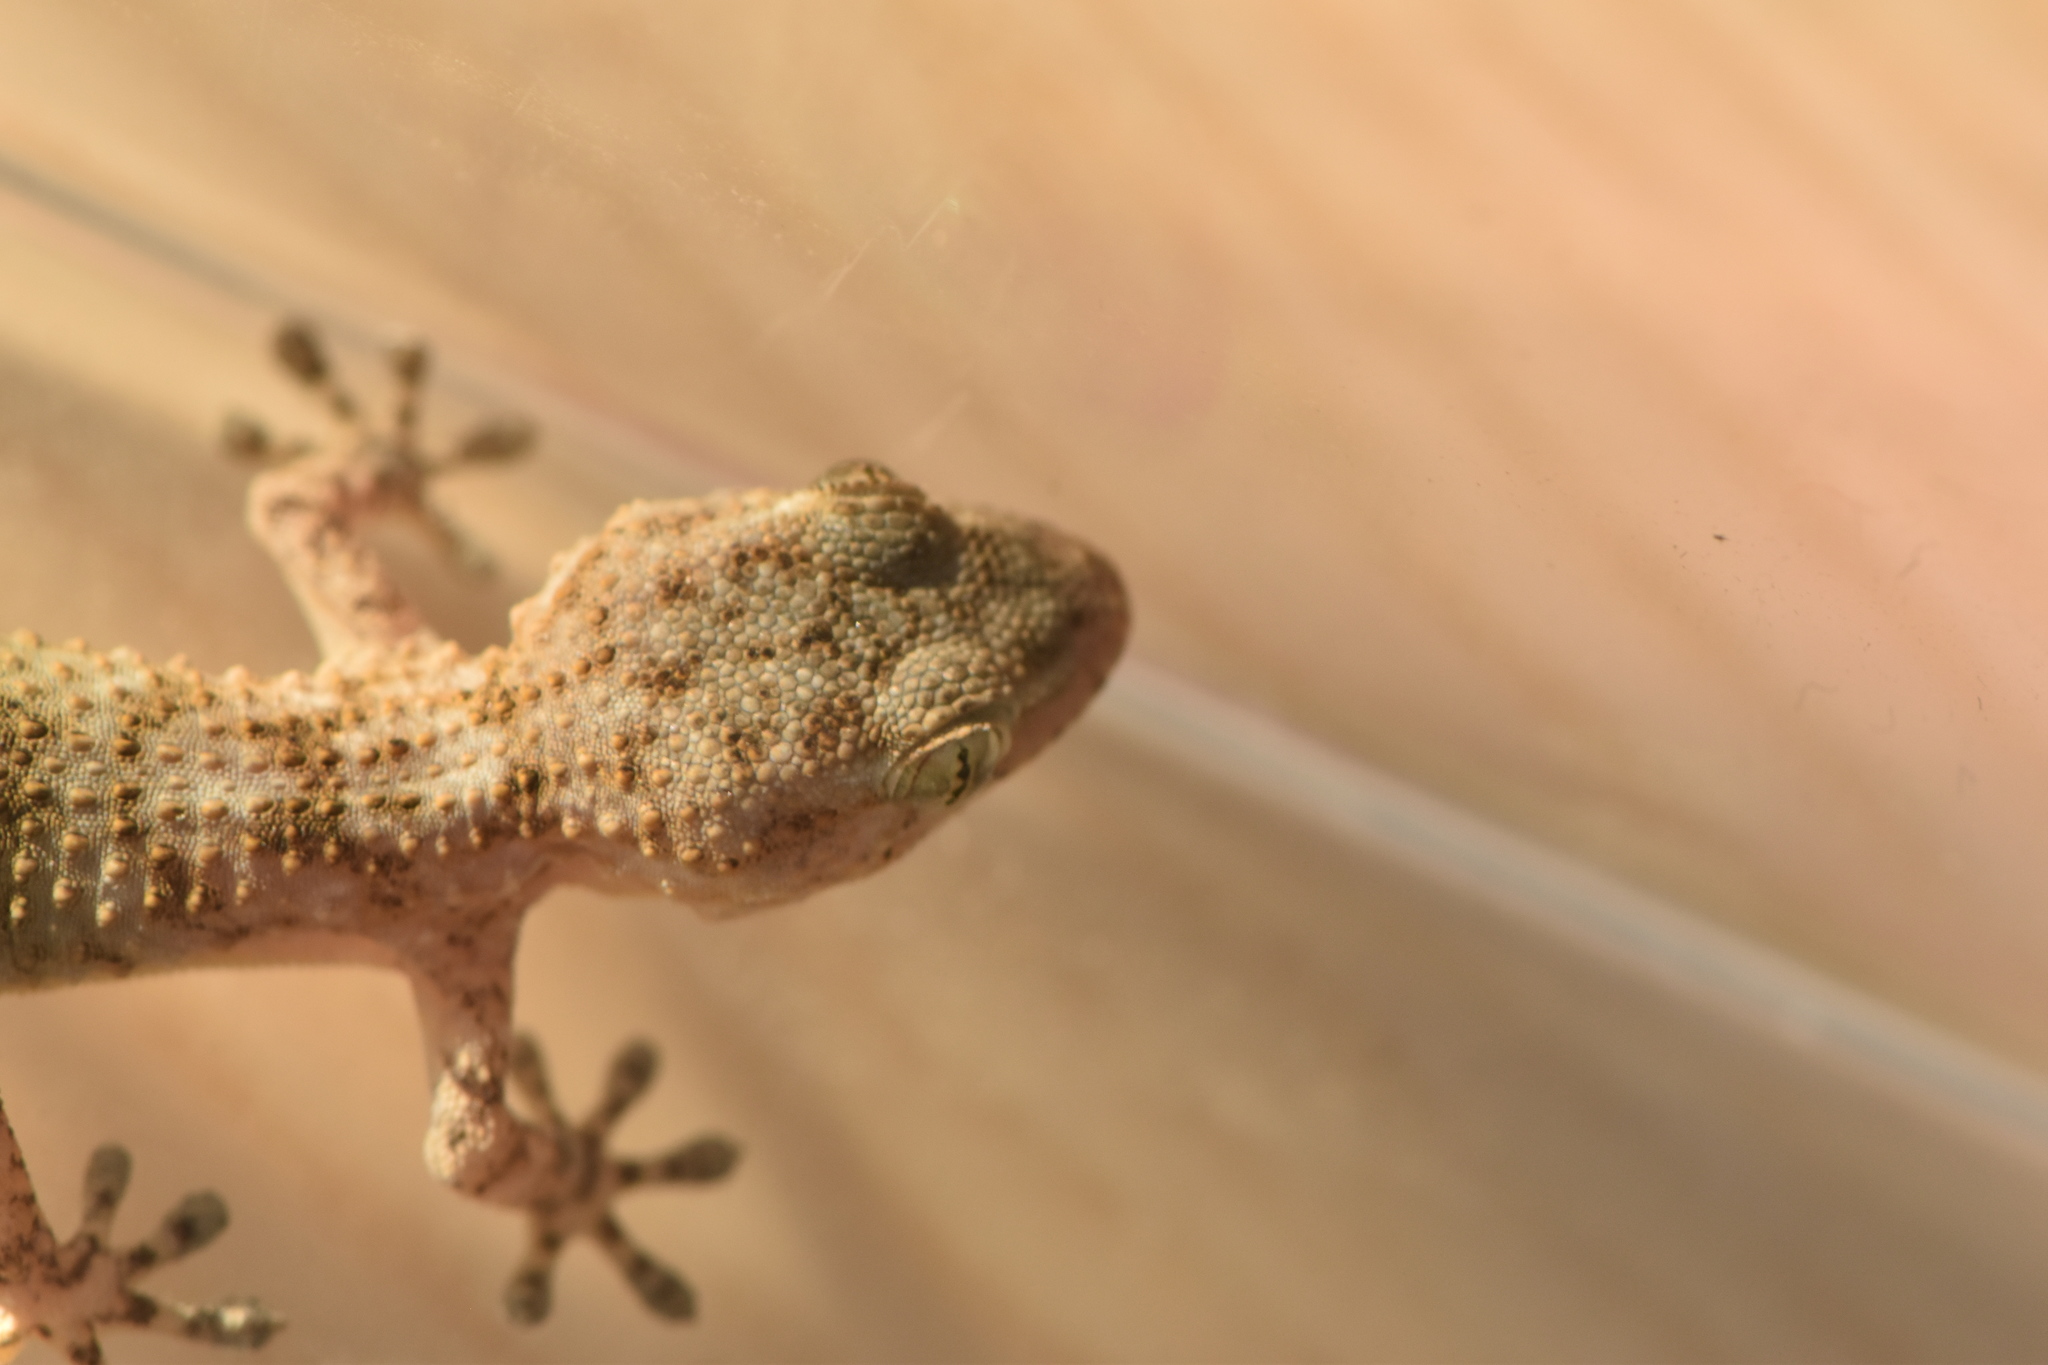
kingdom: Animalia
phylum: Chordata
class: Squamata
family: Phyllodactylidae
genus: Tarentola
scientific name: Tarentola mauritanica
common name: Moorish gecko
